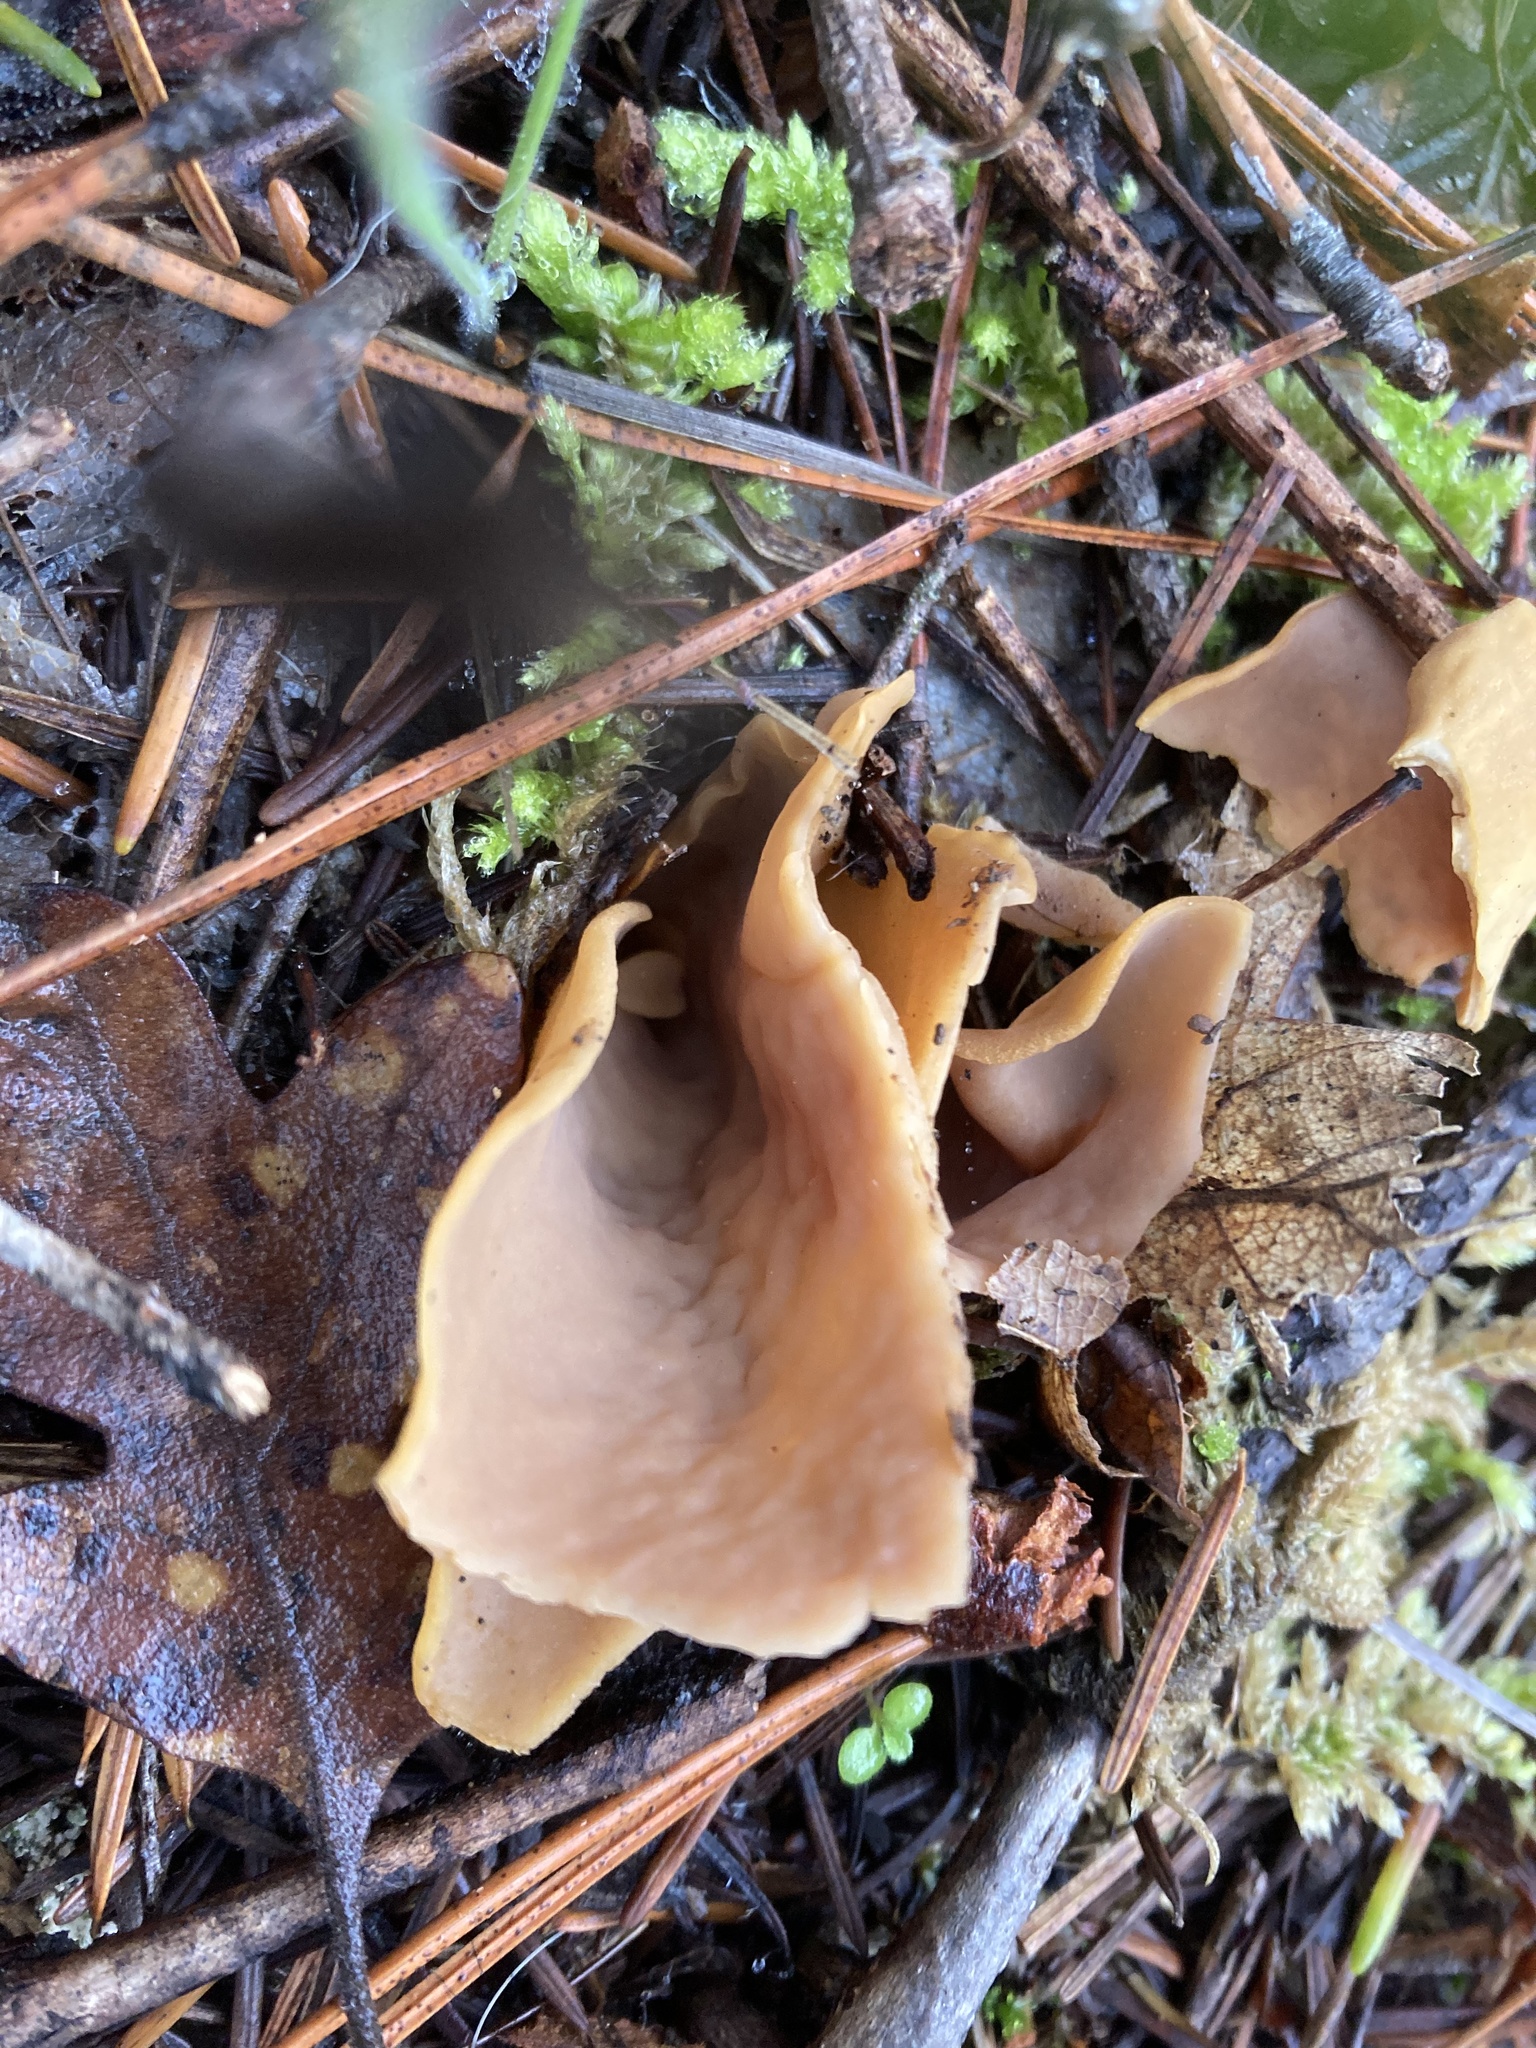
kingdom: Fungi
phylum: Ascomycota
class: Pezizomycetes
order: Pezizales
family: Pezizaceae
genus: Peziza
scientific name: Peziza varia
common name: Layered cup
